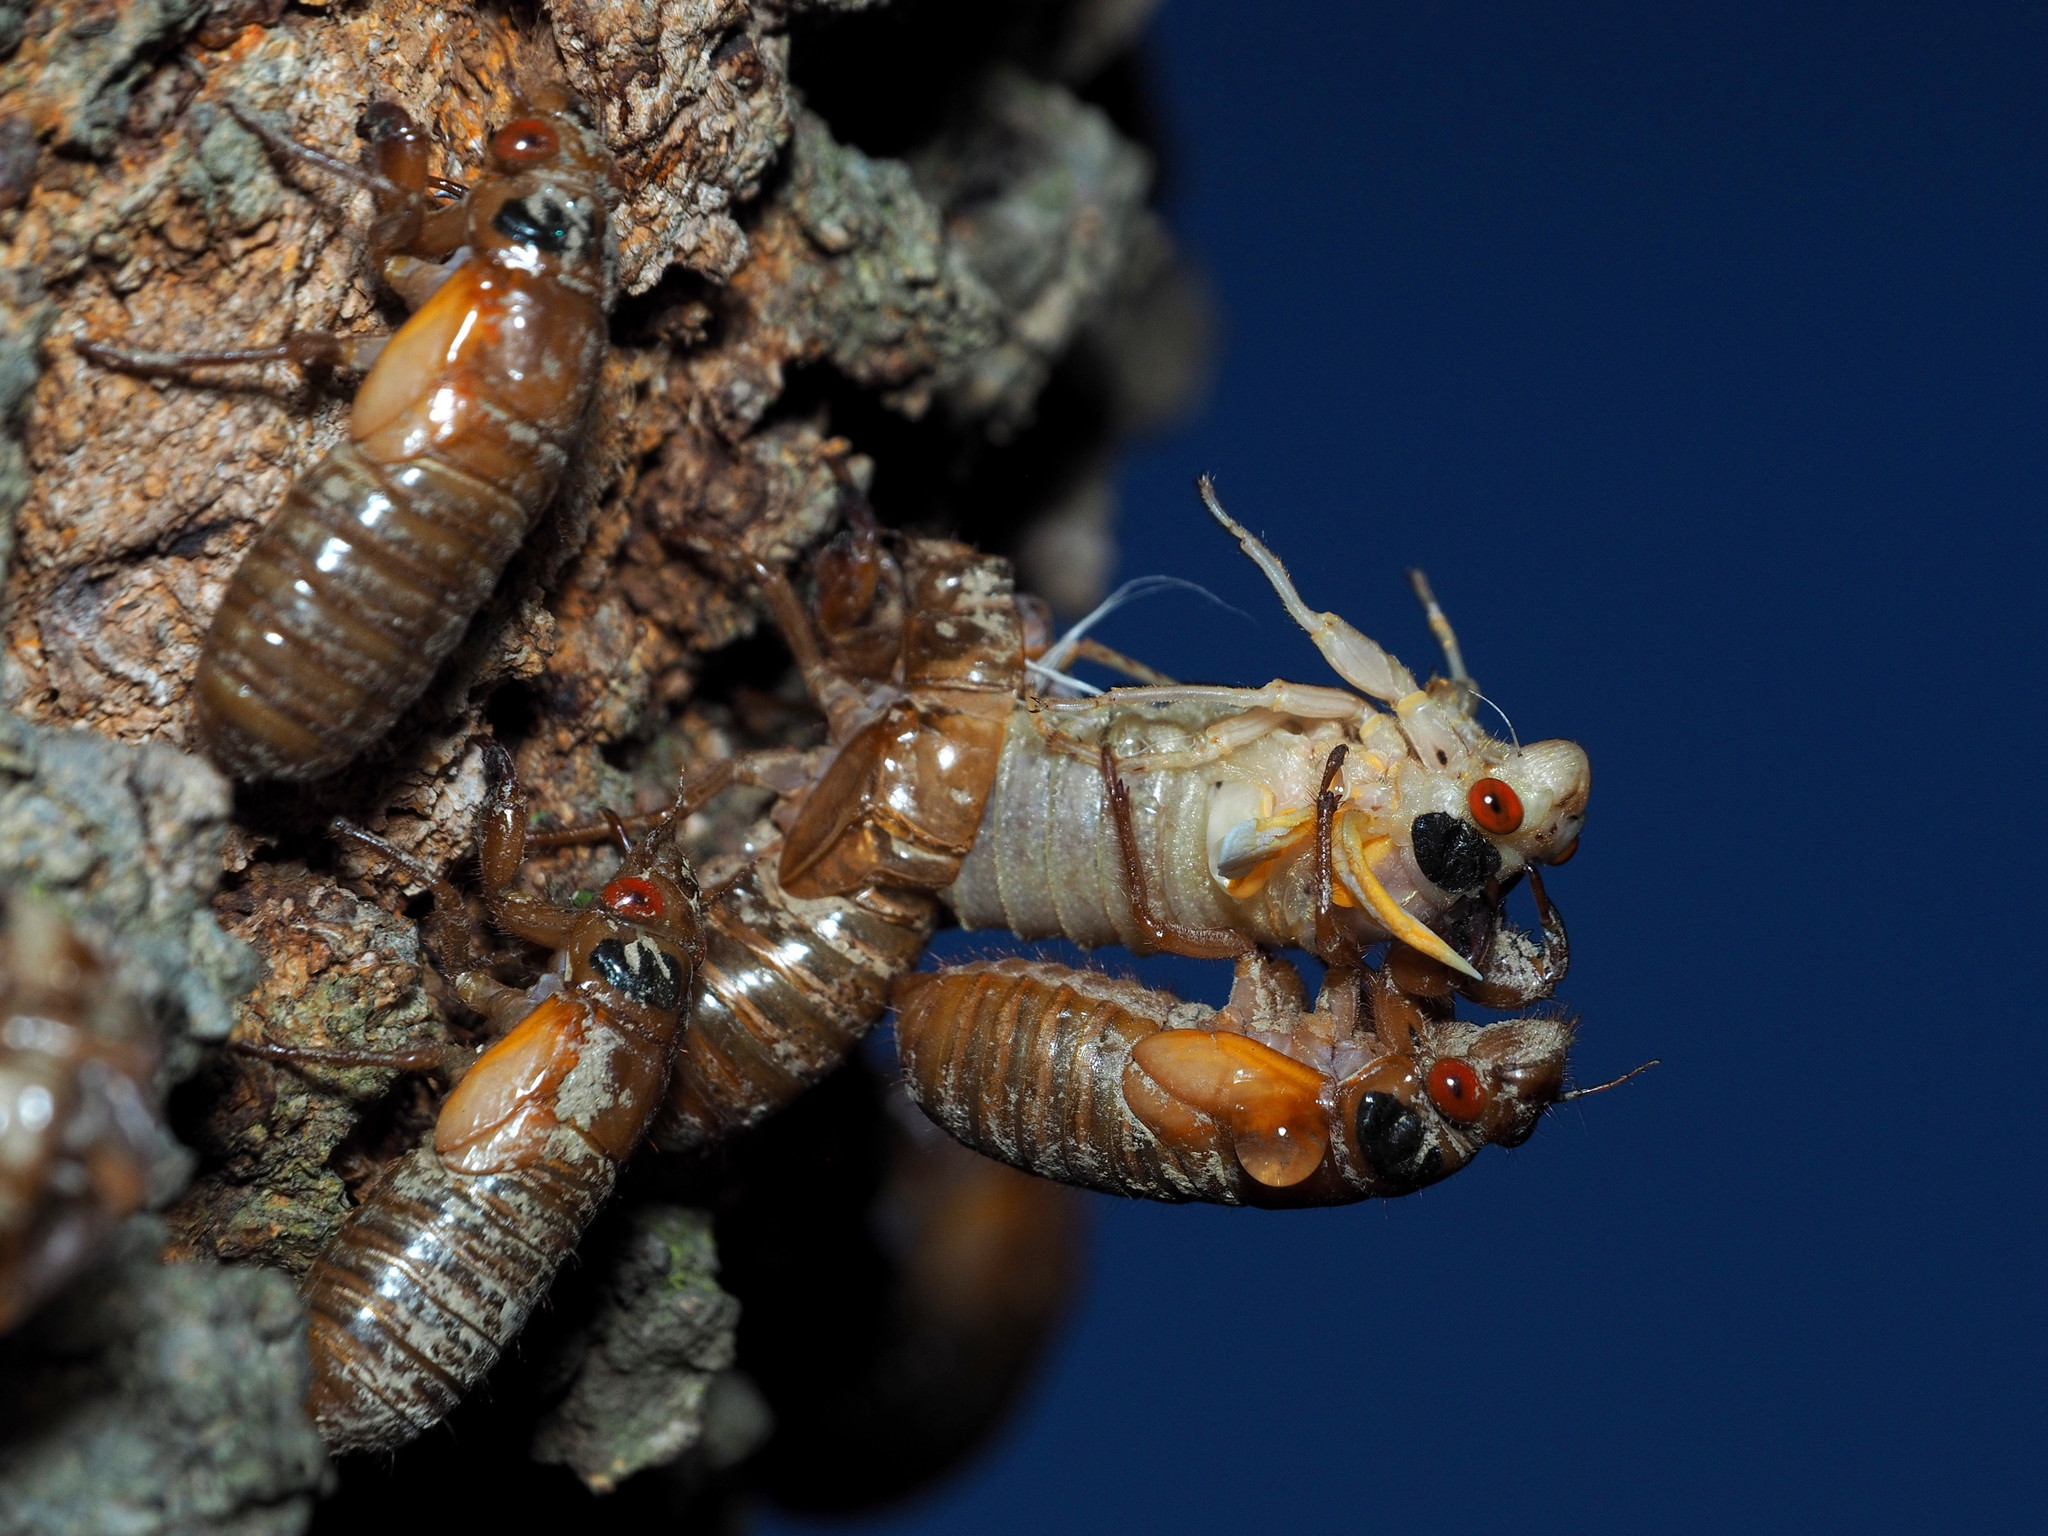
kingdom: Animalia
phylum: Arthropoda
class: Insecta
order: Hemiptera
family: Cicadidae
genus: Magicicada
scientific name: Magicicada
